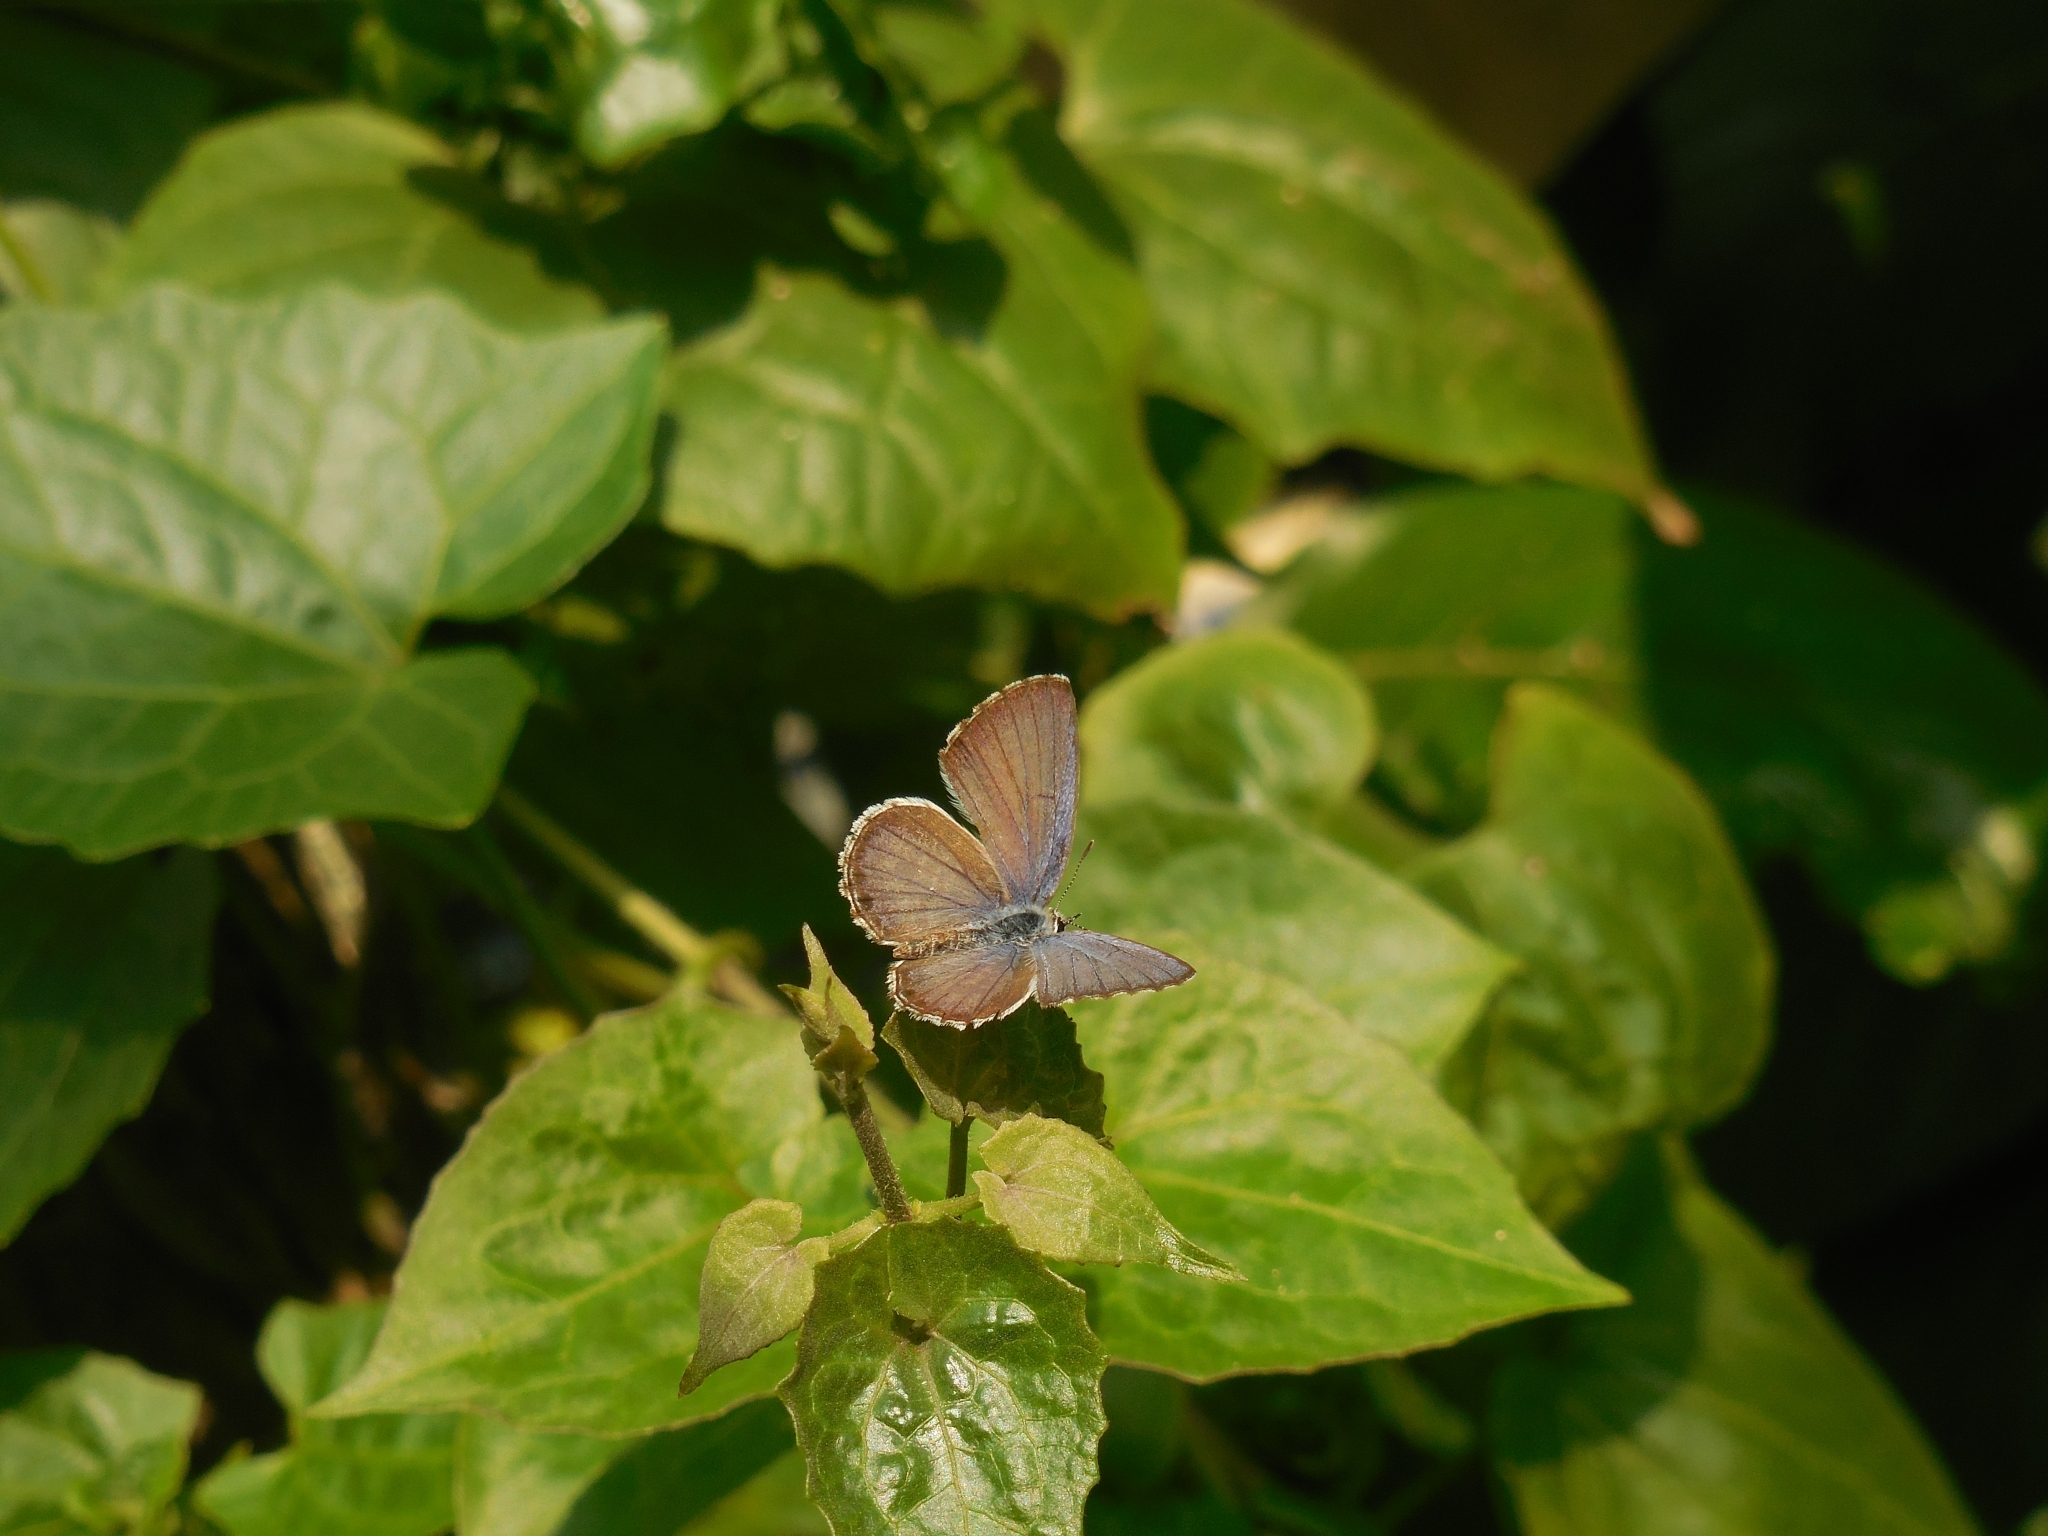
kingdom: Animalia
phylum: Arthropoda
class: Insecta
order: Lepidoptera
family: Lycaenidae
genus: Chilades
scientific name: Chilades laius
